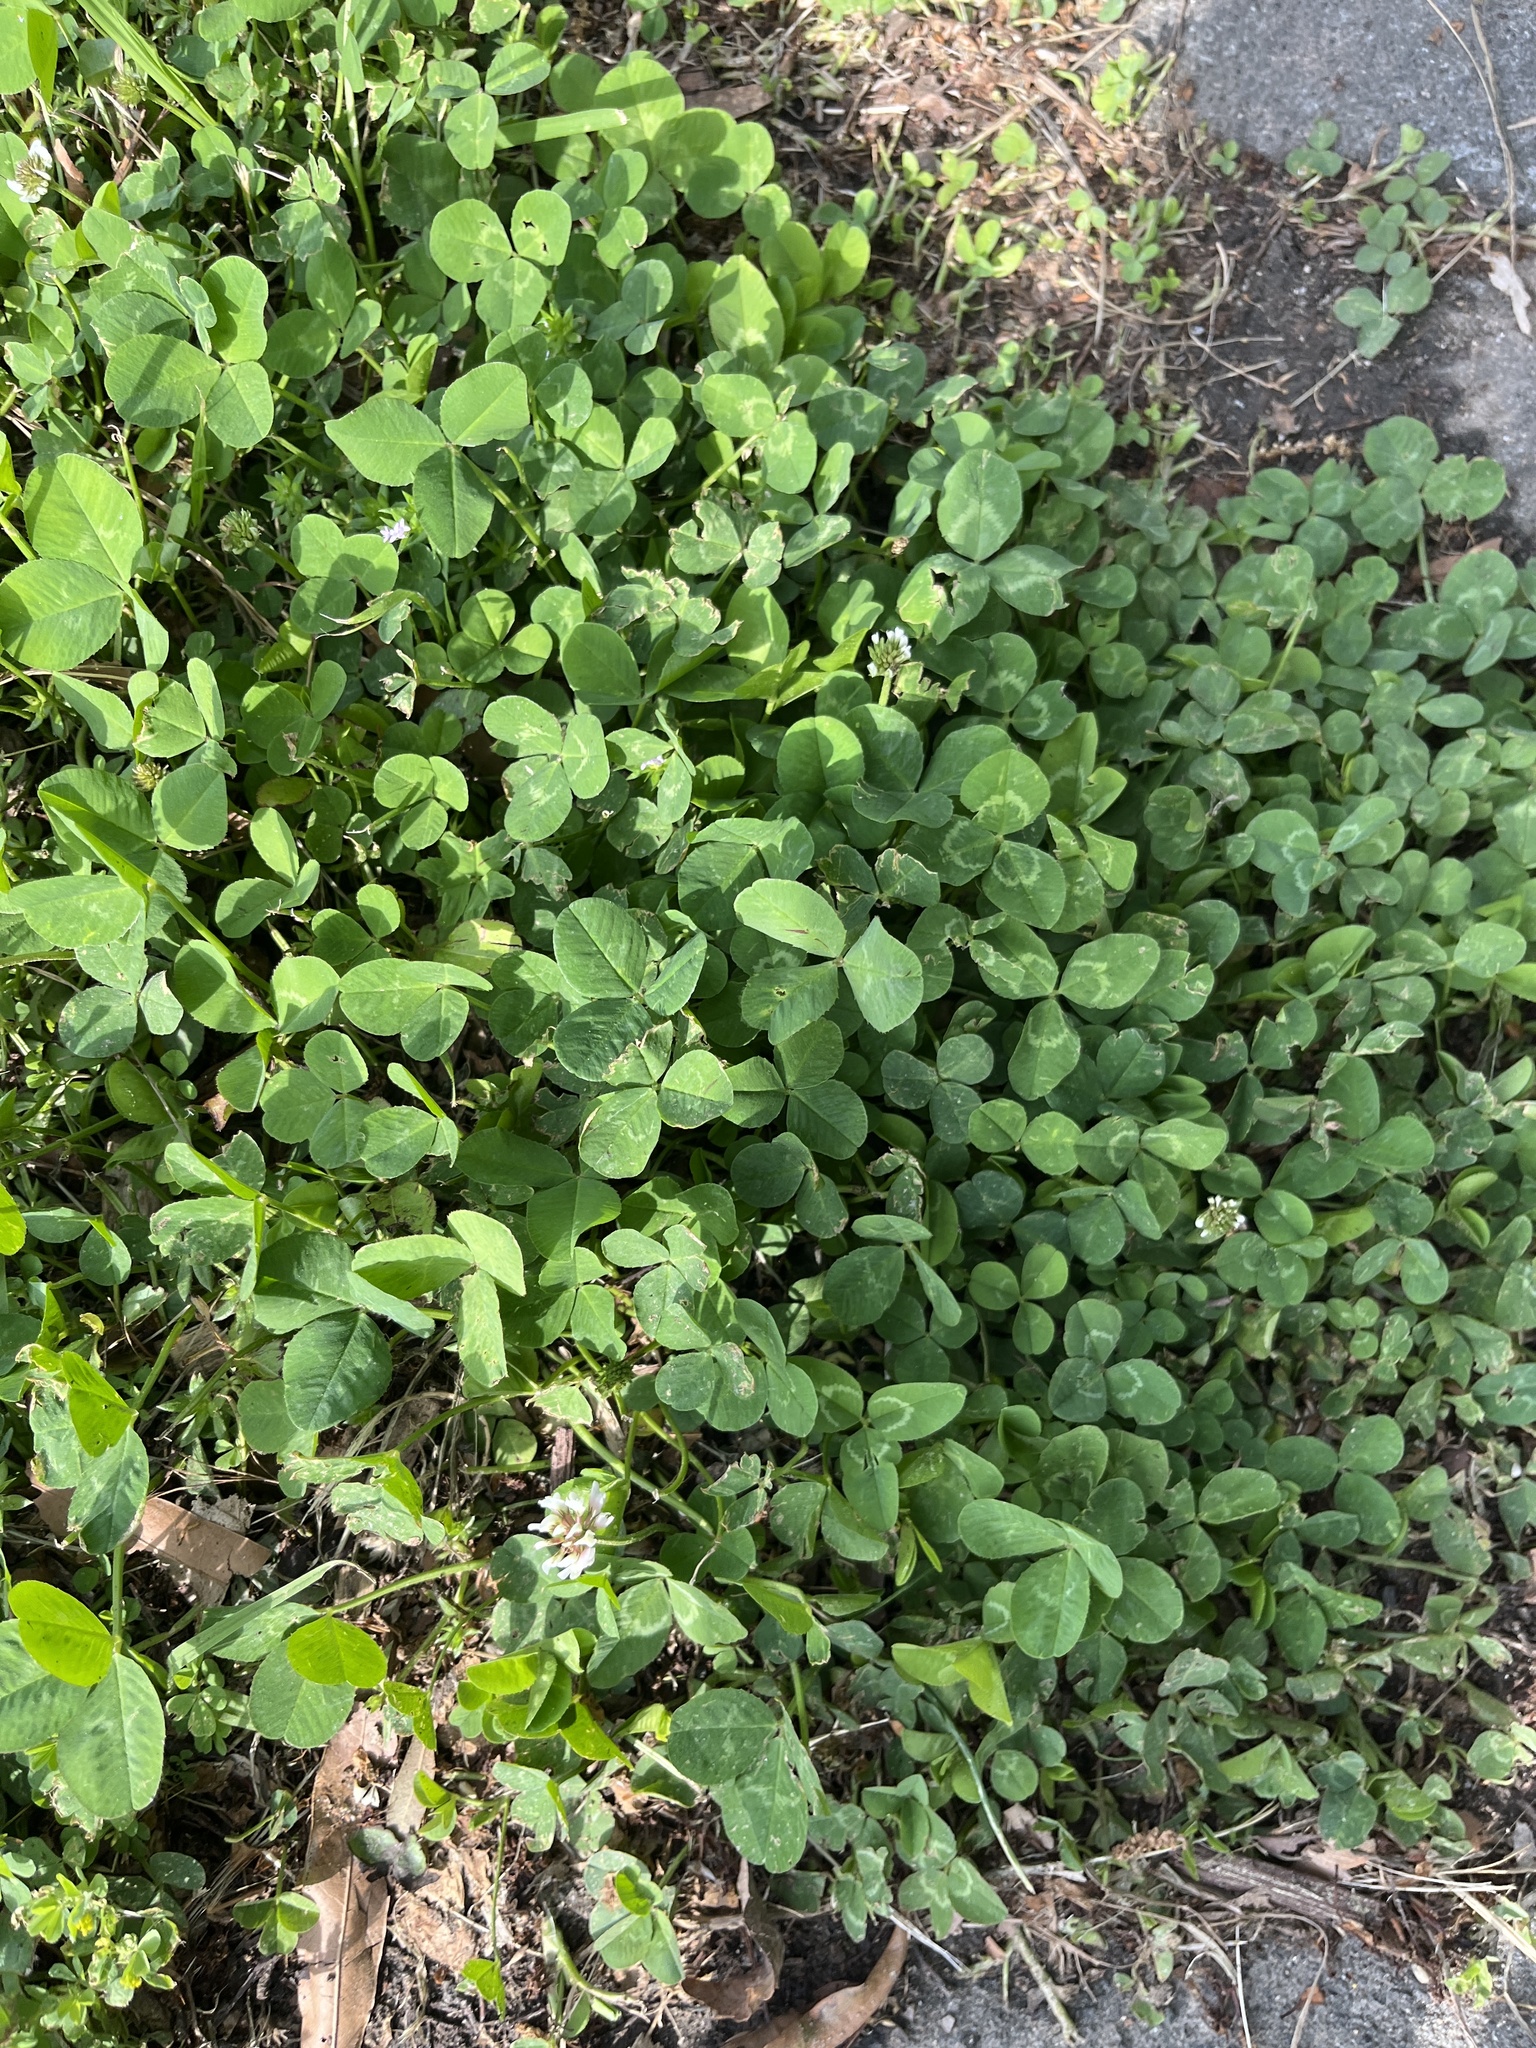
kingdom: Plantae
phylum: Tracheophyta
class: Magnoliopsida
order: Fabales
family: Fabaceae
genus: Trifolium
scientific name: Trifolium repens
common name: White clover
